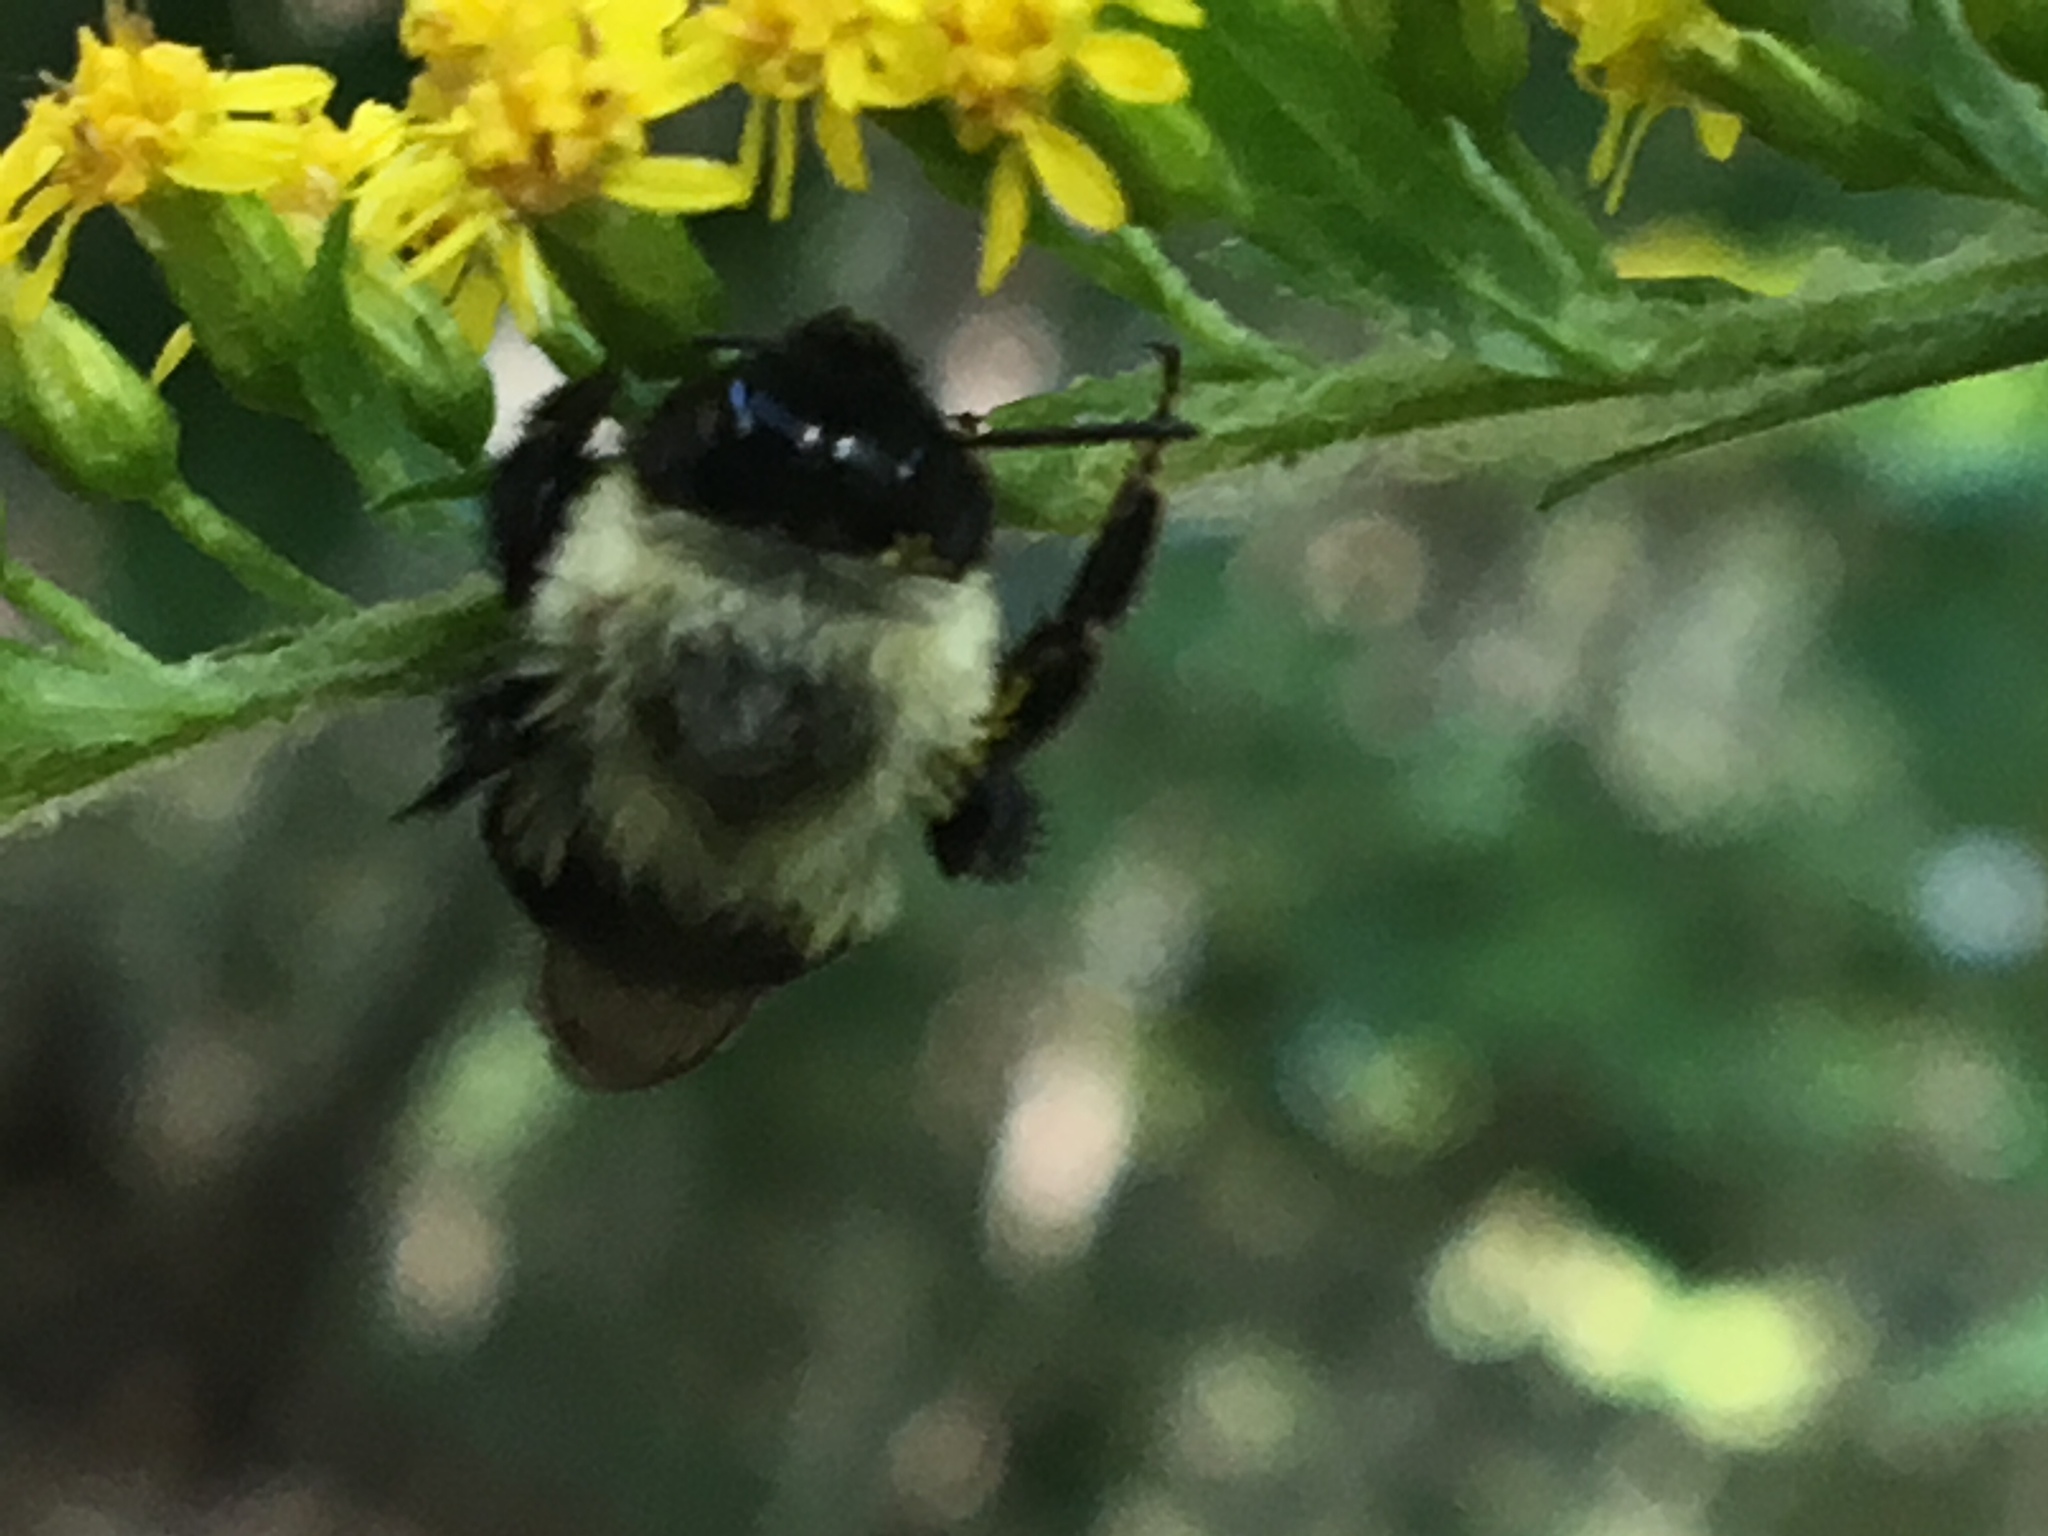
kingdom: Animalia
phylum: Arthropoda
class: Insecta
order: Hymenoptera
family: Apidae
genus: Bombus
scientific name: Bombus impatiens
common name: Common eastern bumble bee
